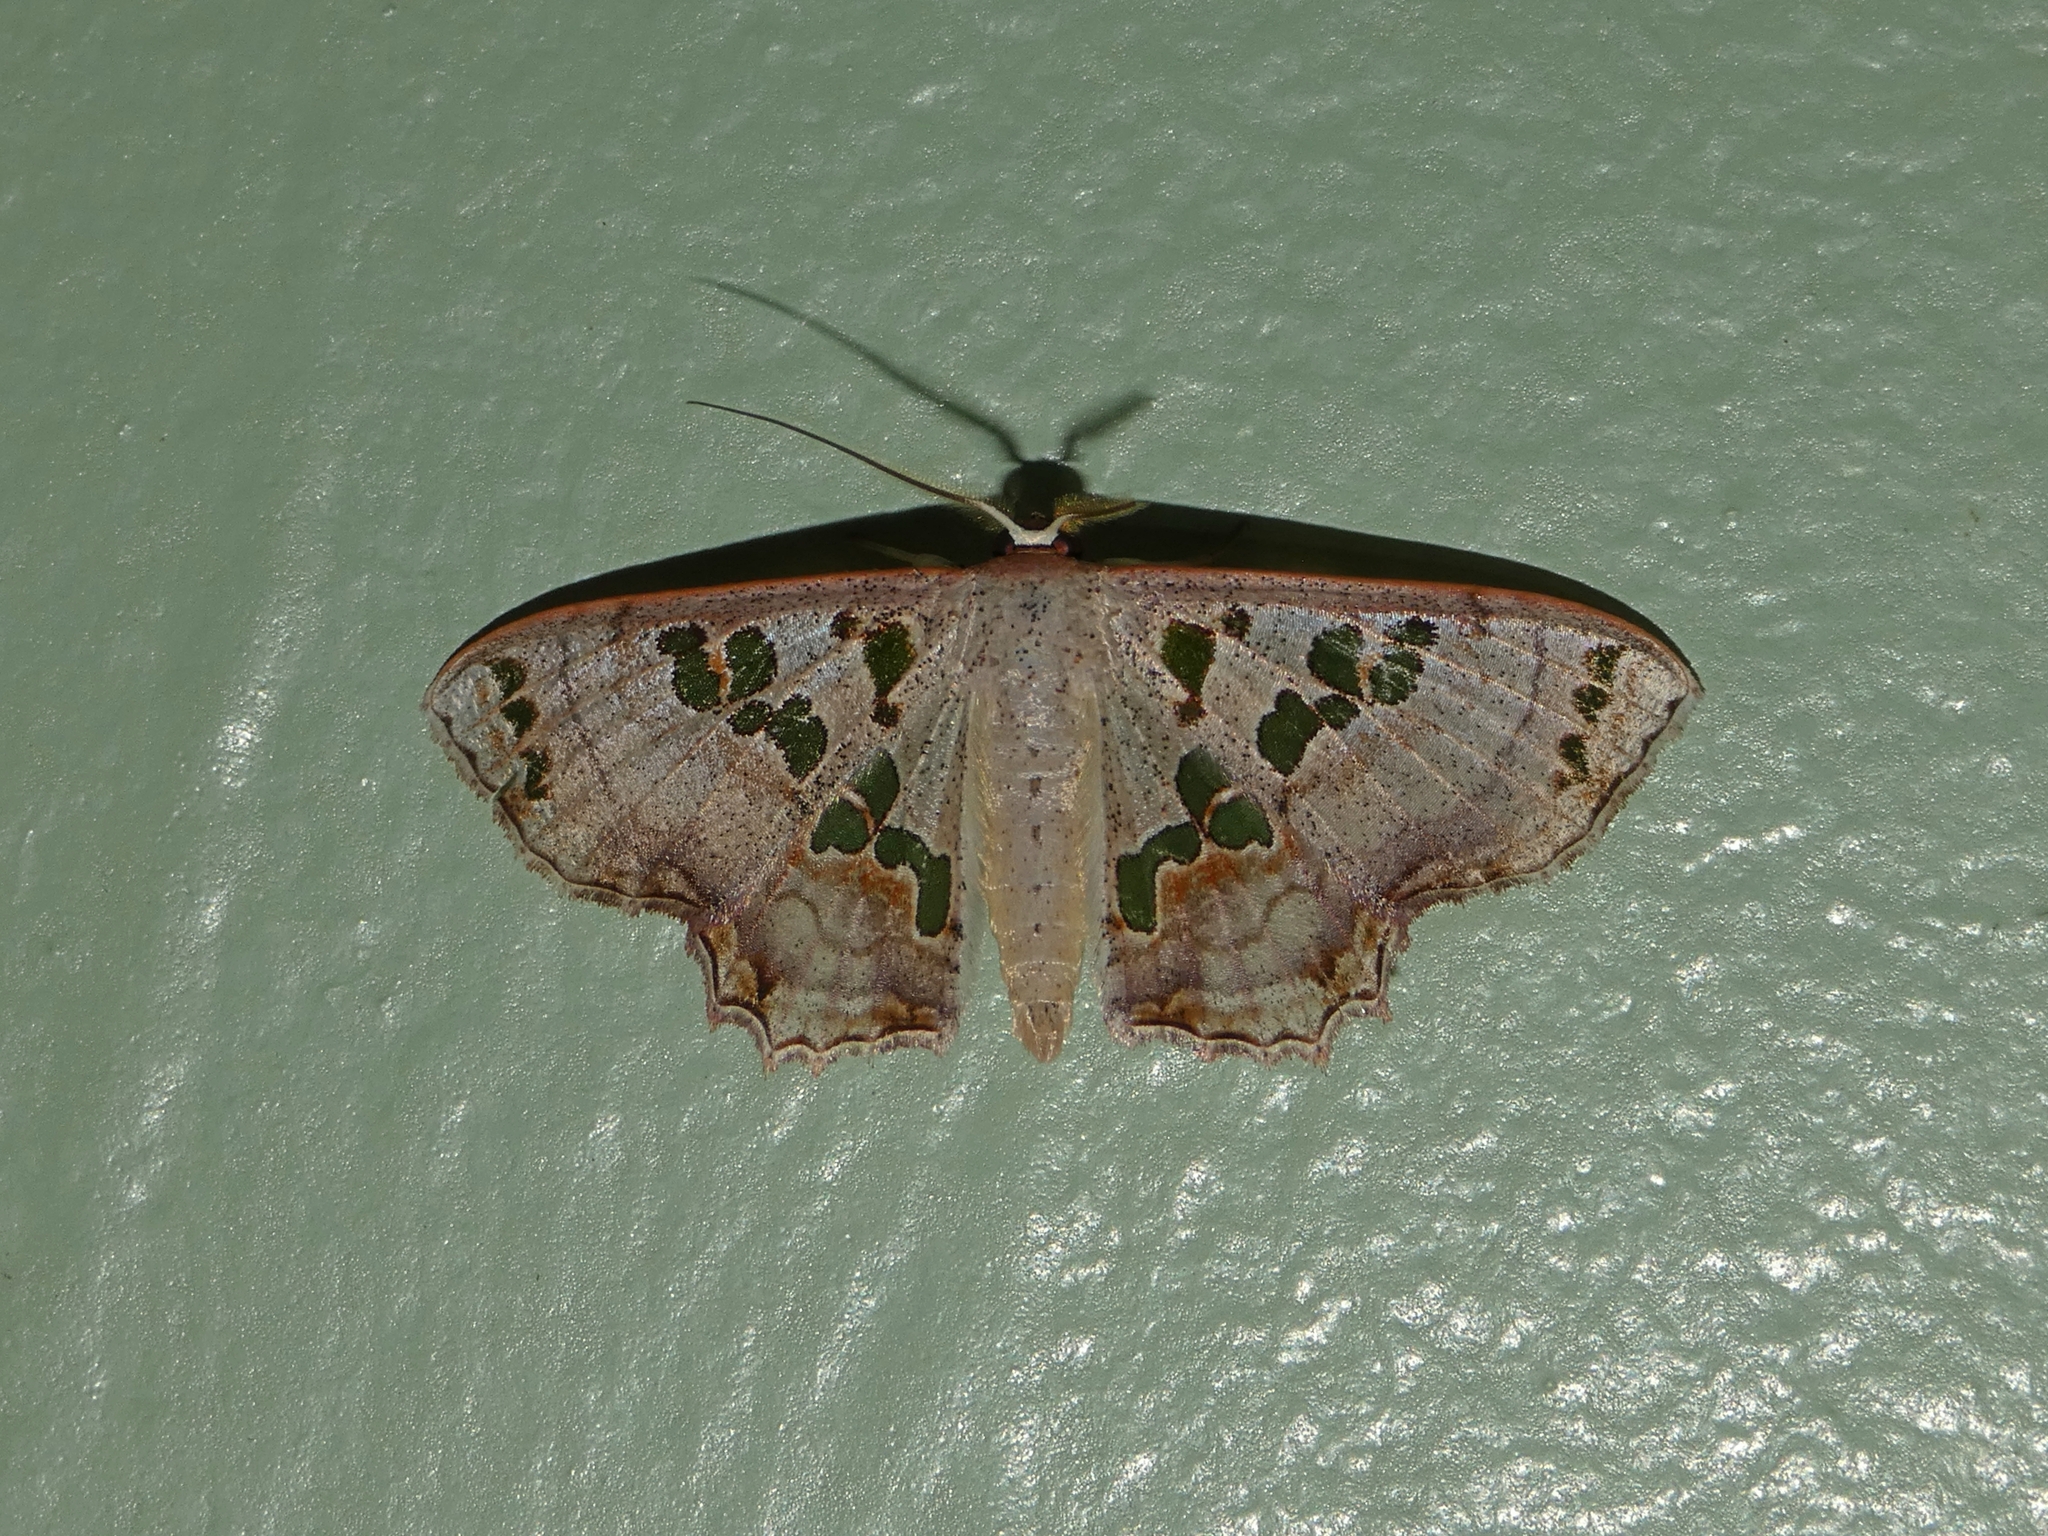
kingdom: Animalia
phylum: Arthropoda
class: Insecta
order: Lepidoptera
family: Geometridae
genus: Scopula
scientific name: Scopula parvimacula
